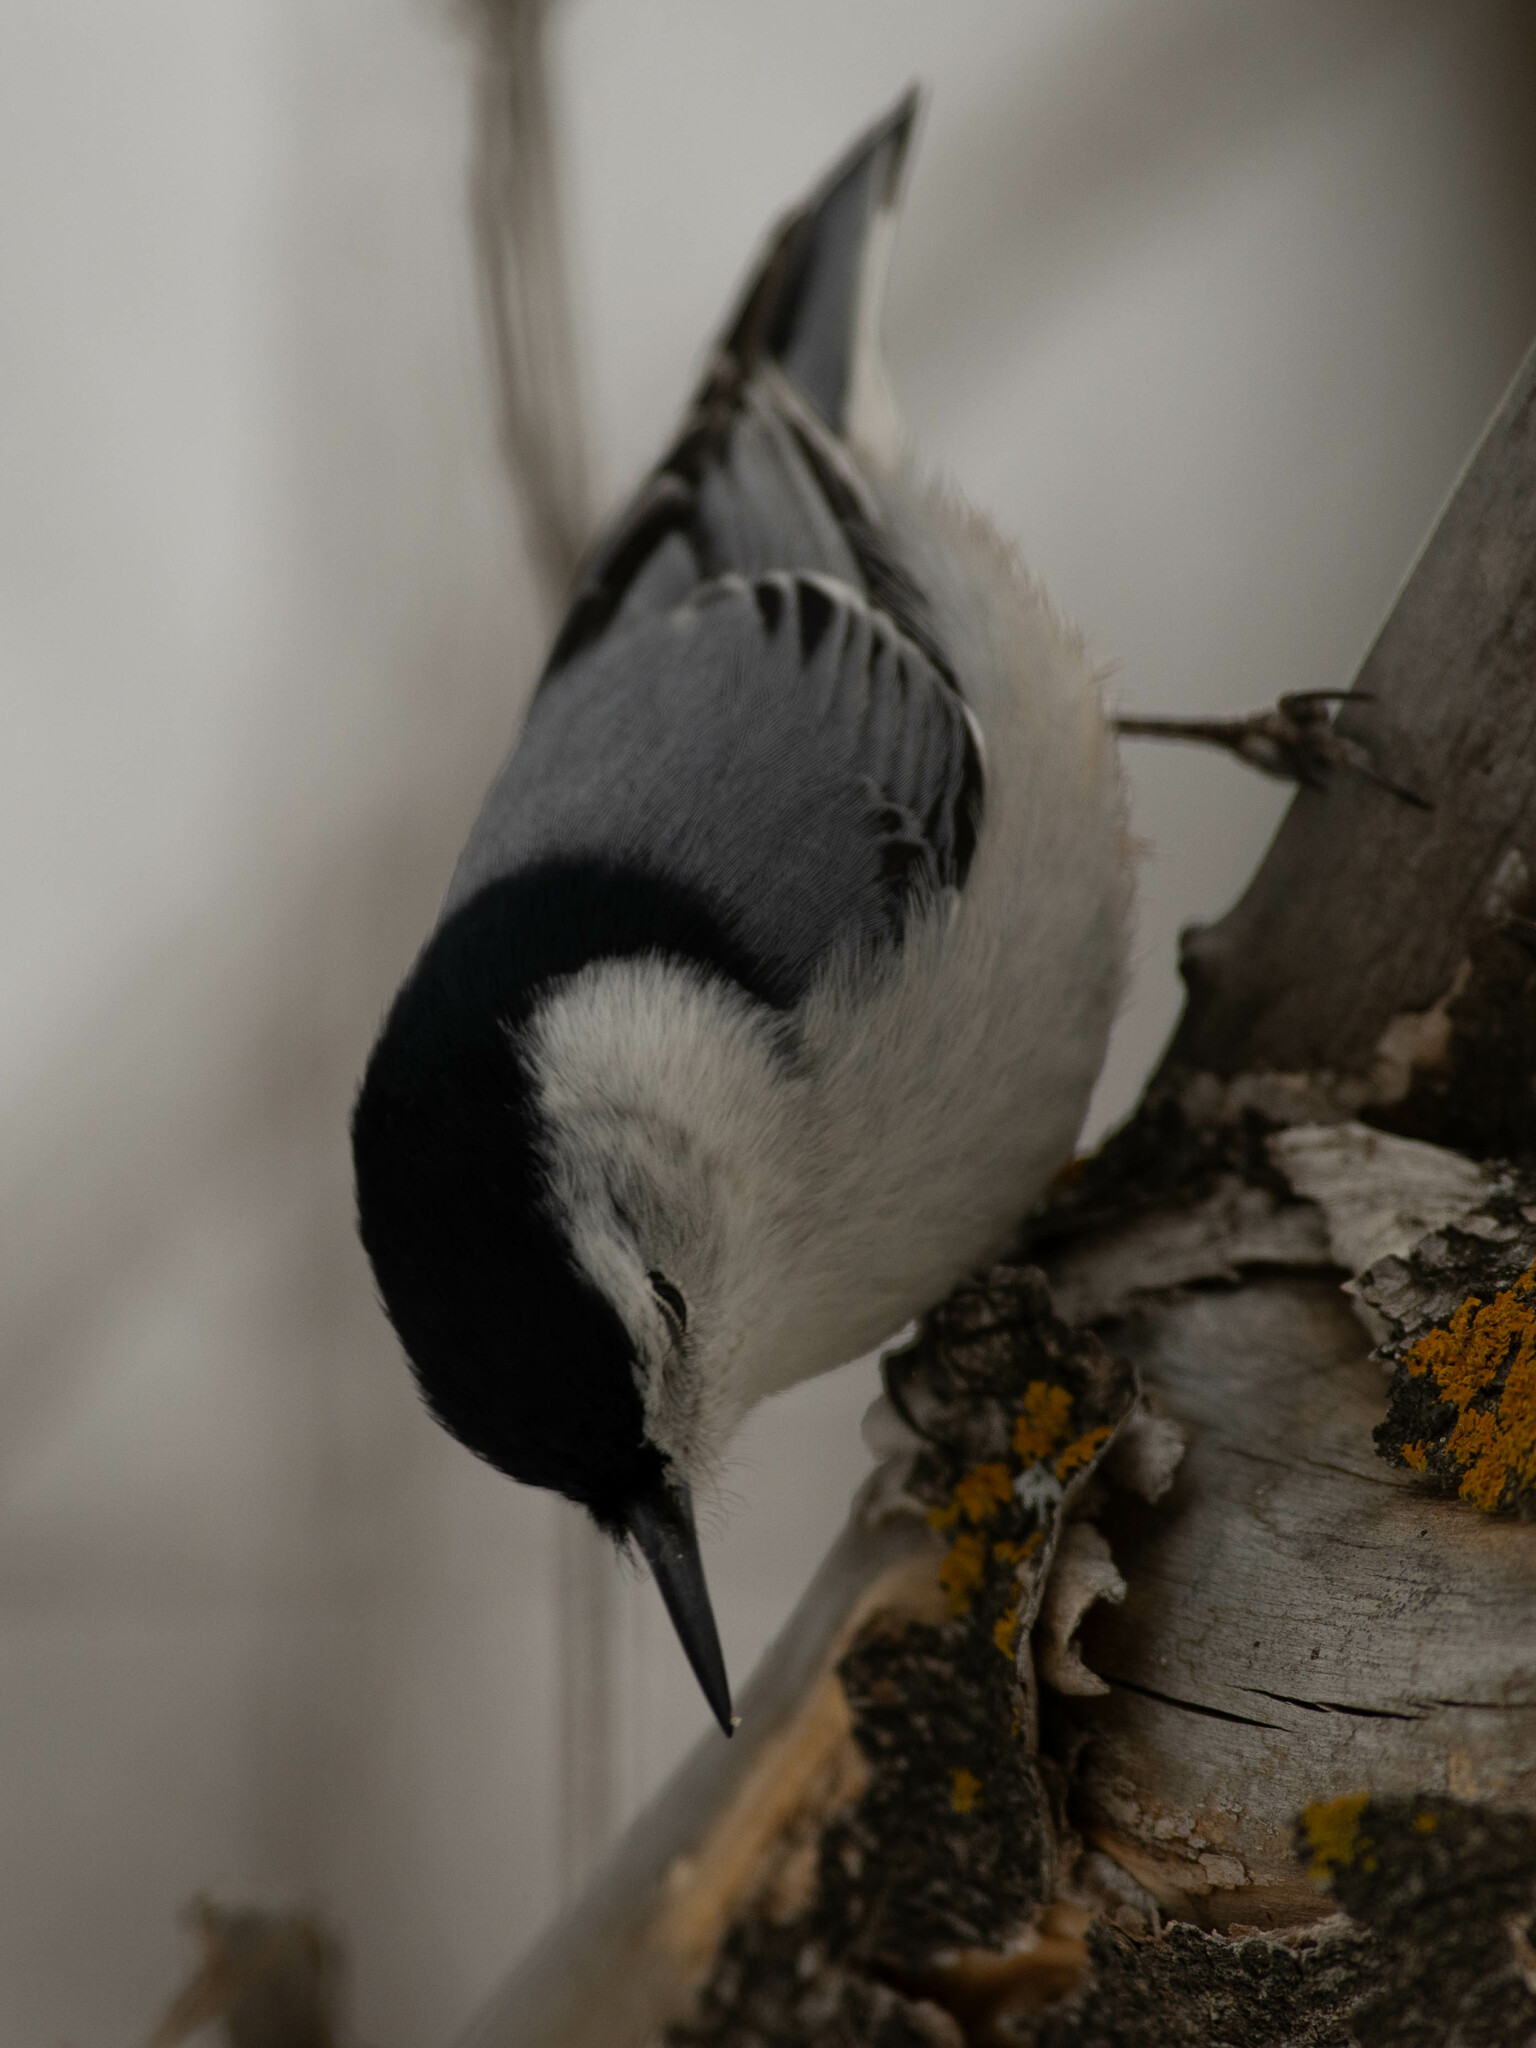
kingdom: Animalia
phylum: Chordata
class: Aves
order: Passeriformes
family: Sittidae
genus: Sitta
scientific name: Sitta carolinensis
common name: White-breasted nuthatch
